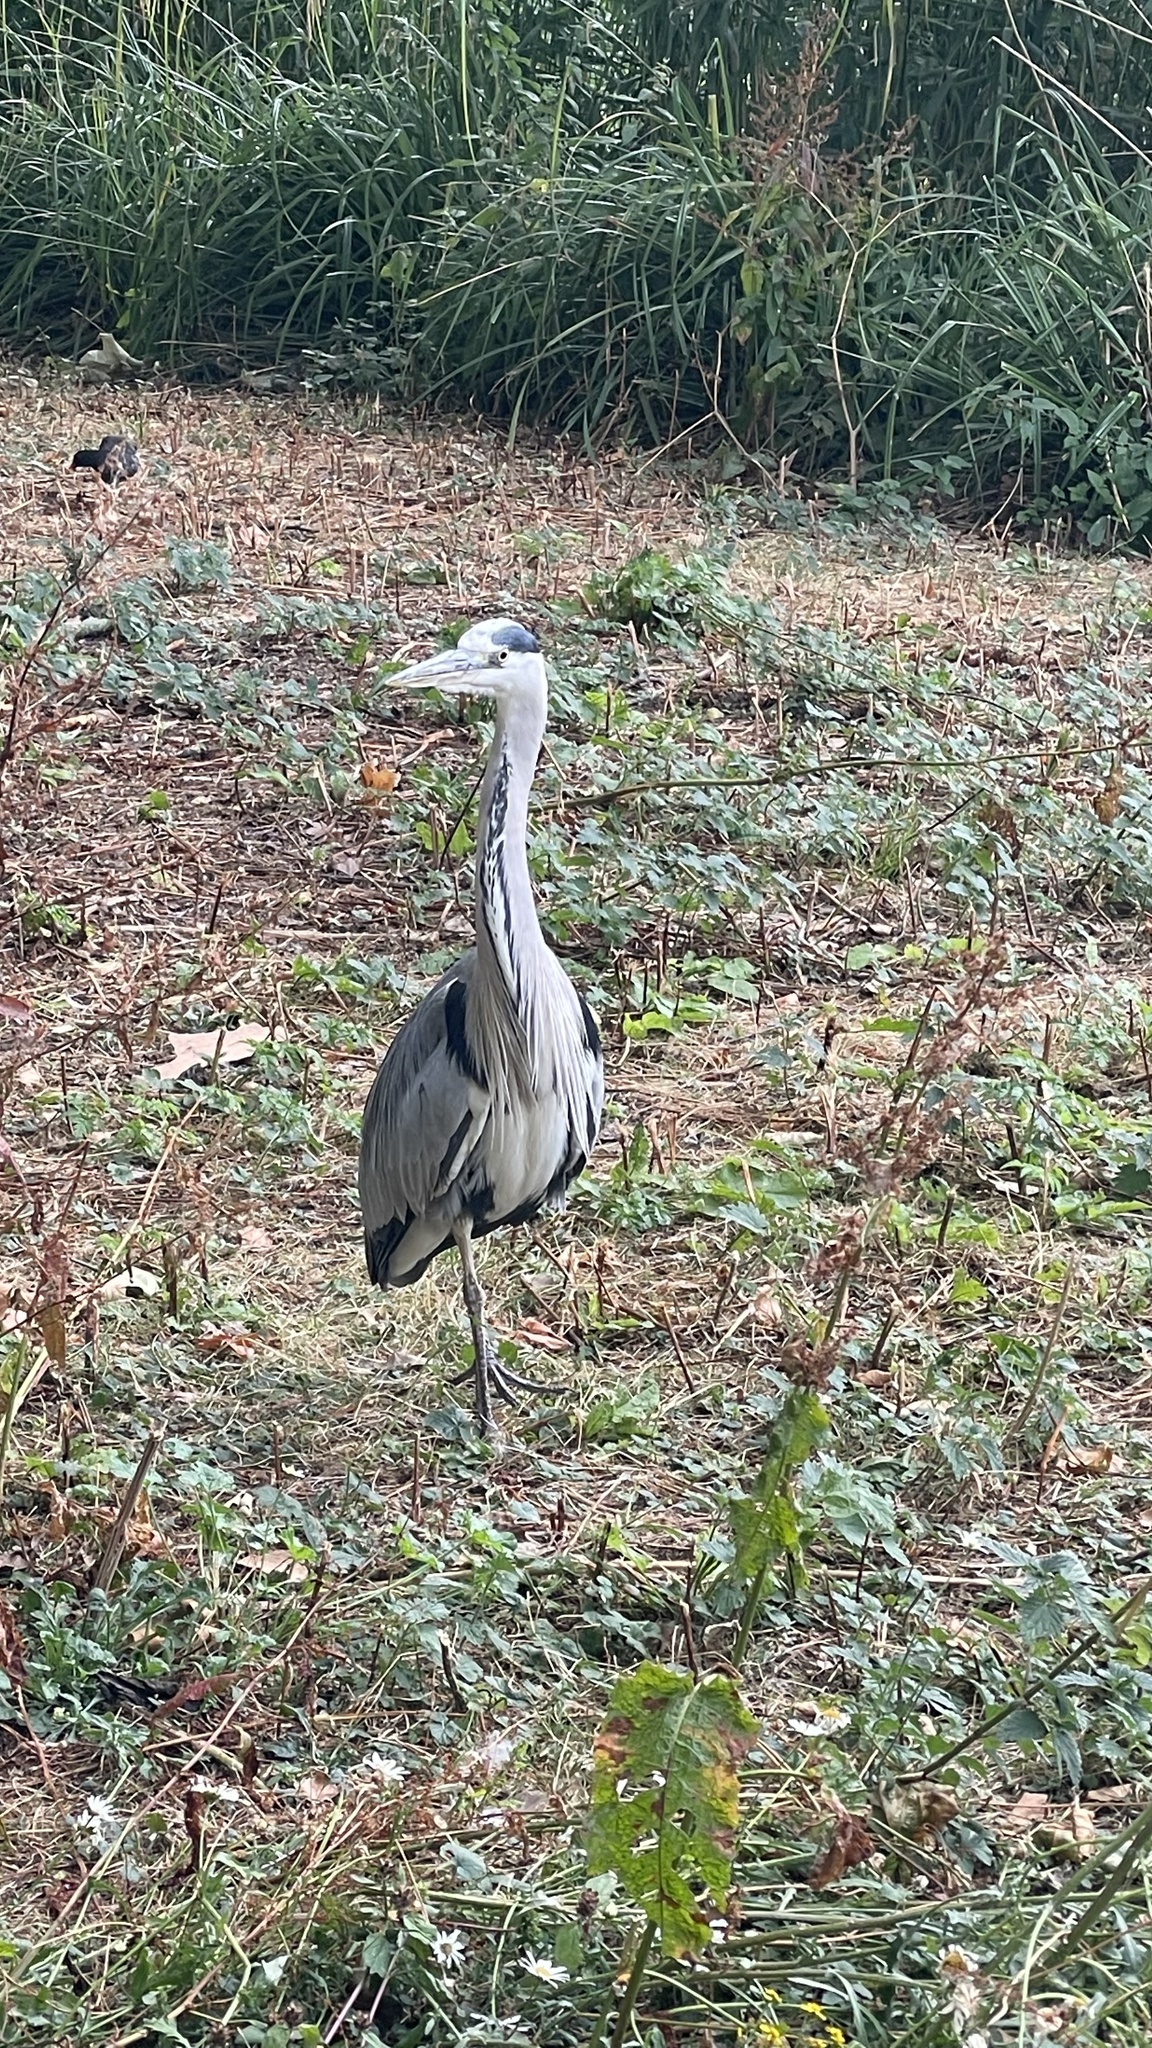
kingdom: Animalia
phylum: Chordata
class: Aves
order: Pelecaniformes
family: Ardeidae
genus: Ardea
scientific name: Ardea cinerea
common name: Grey heron
